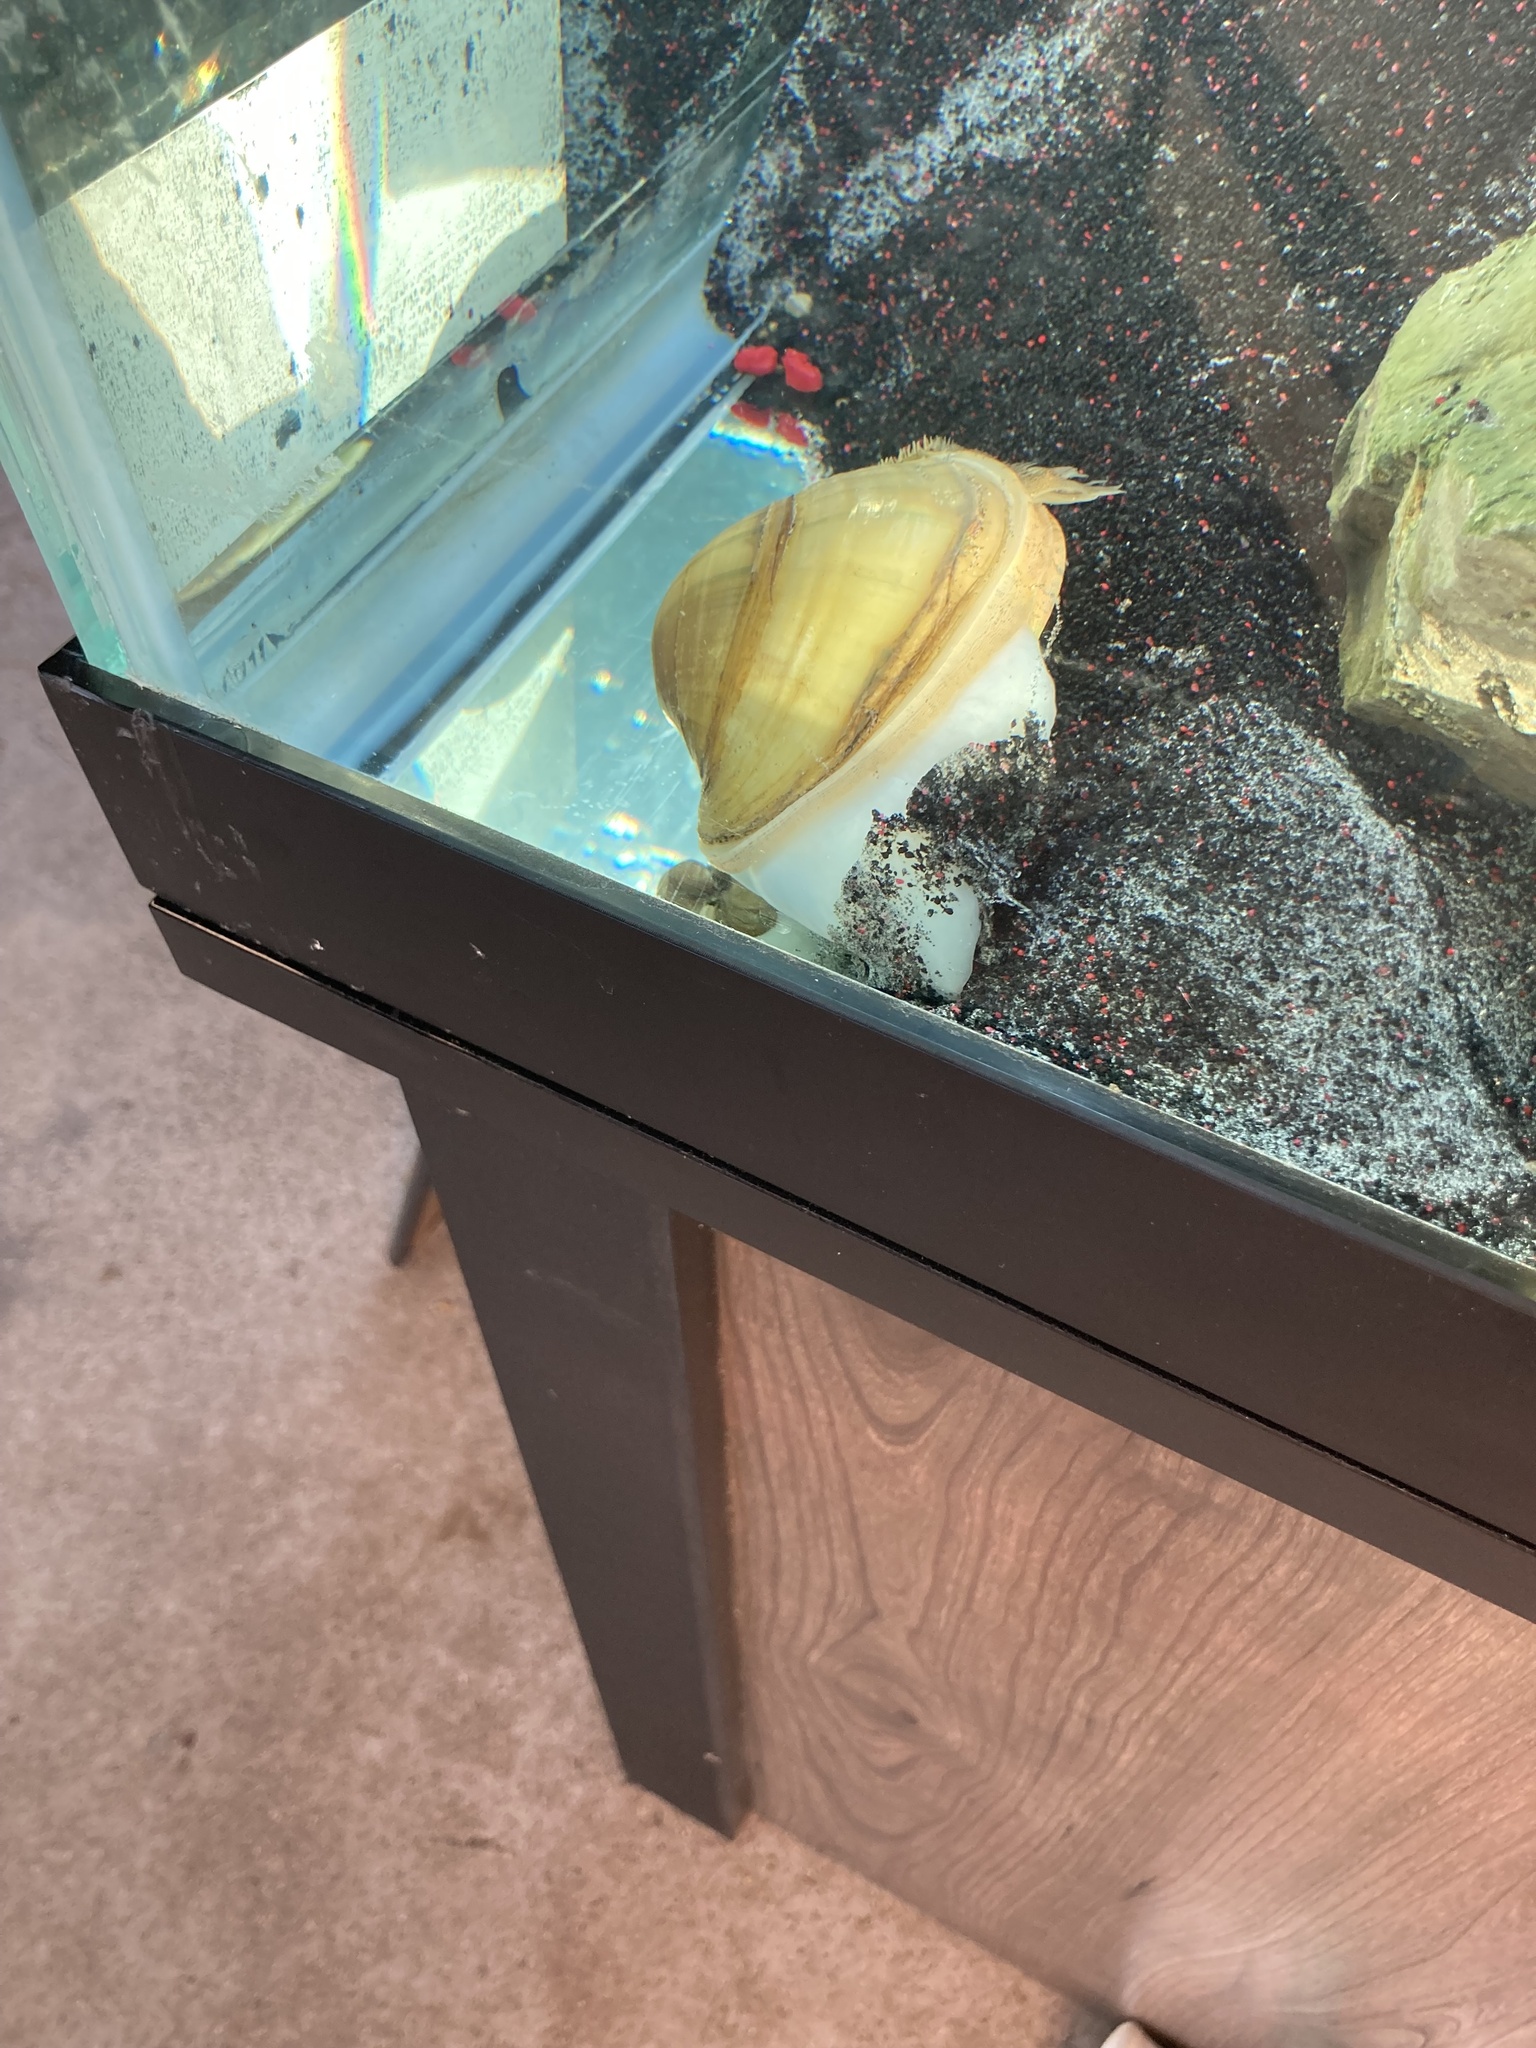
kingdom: Animalia
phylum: Mollusca
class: Bivalvia
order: Unionida
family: Unionidae
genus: Lampsilis
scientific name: Lampsilis cardium
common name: Plain pocketbook
